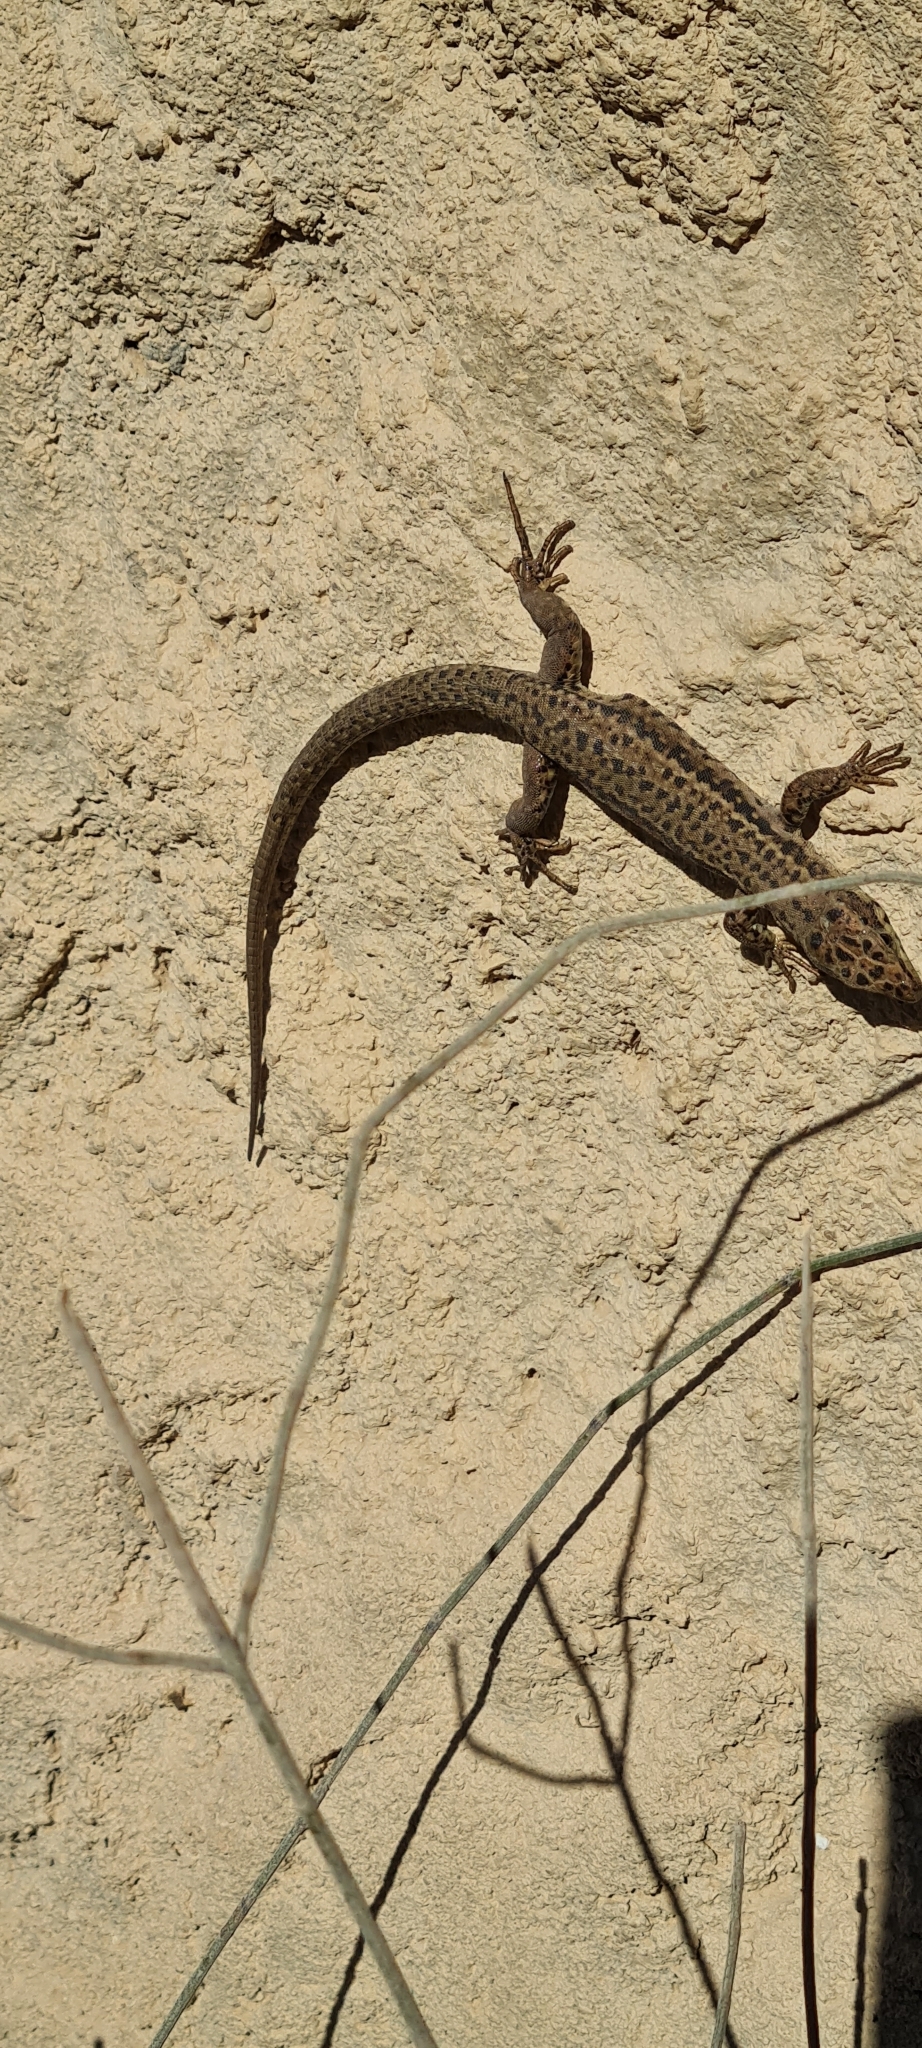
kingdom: Animalia
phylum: Chordata
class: Squamata
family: Lacertidae
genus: Podarcis
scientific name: Podarcis liolepis
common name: Catalonian wall lizard
